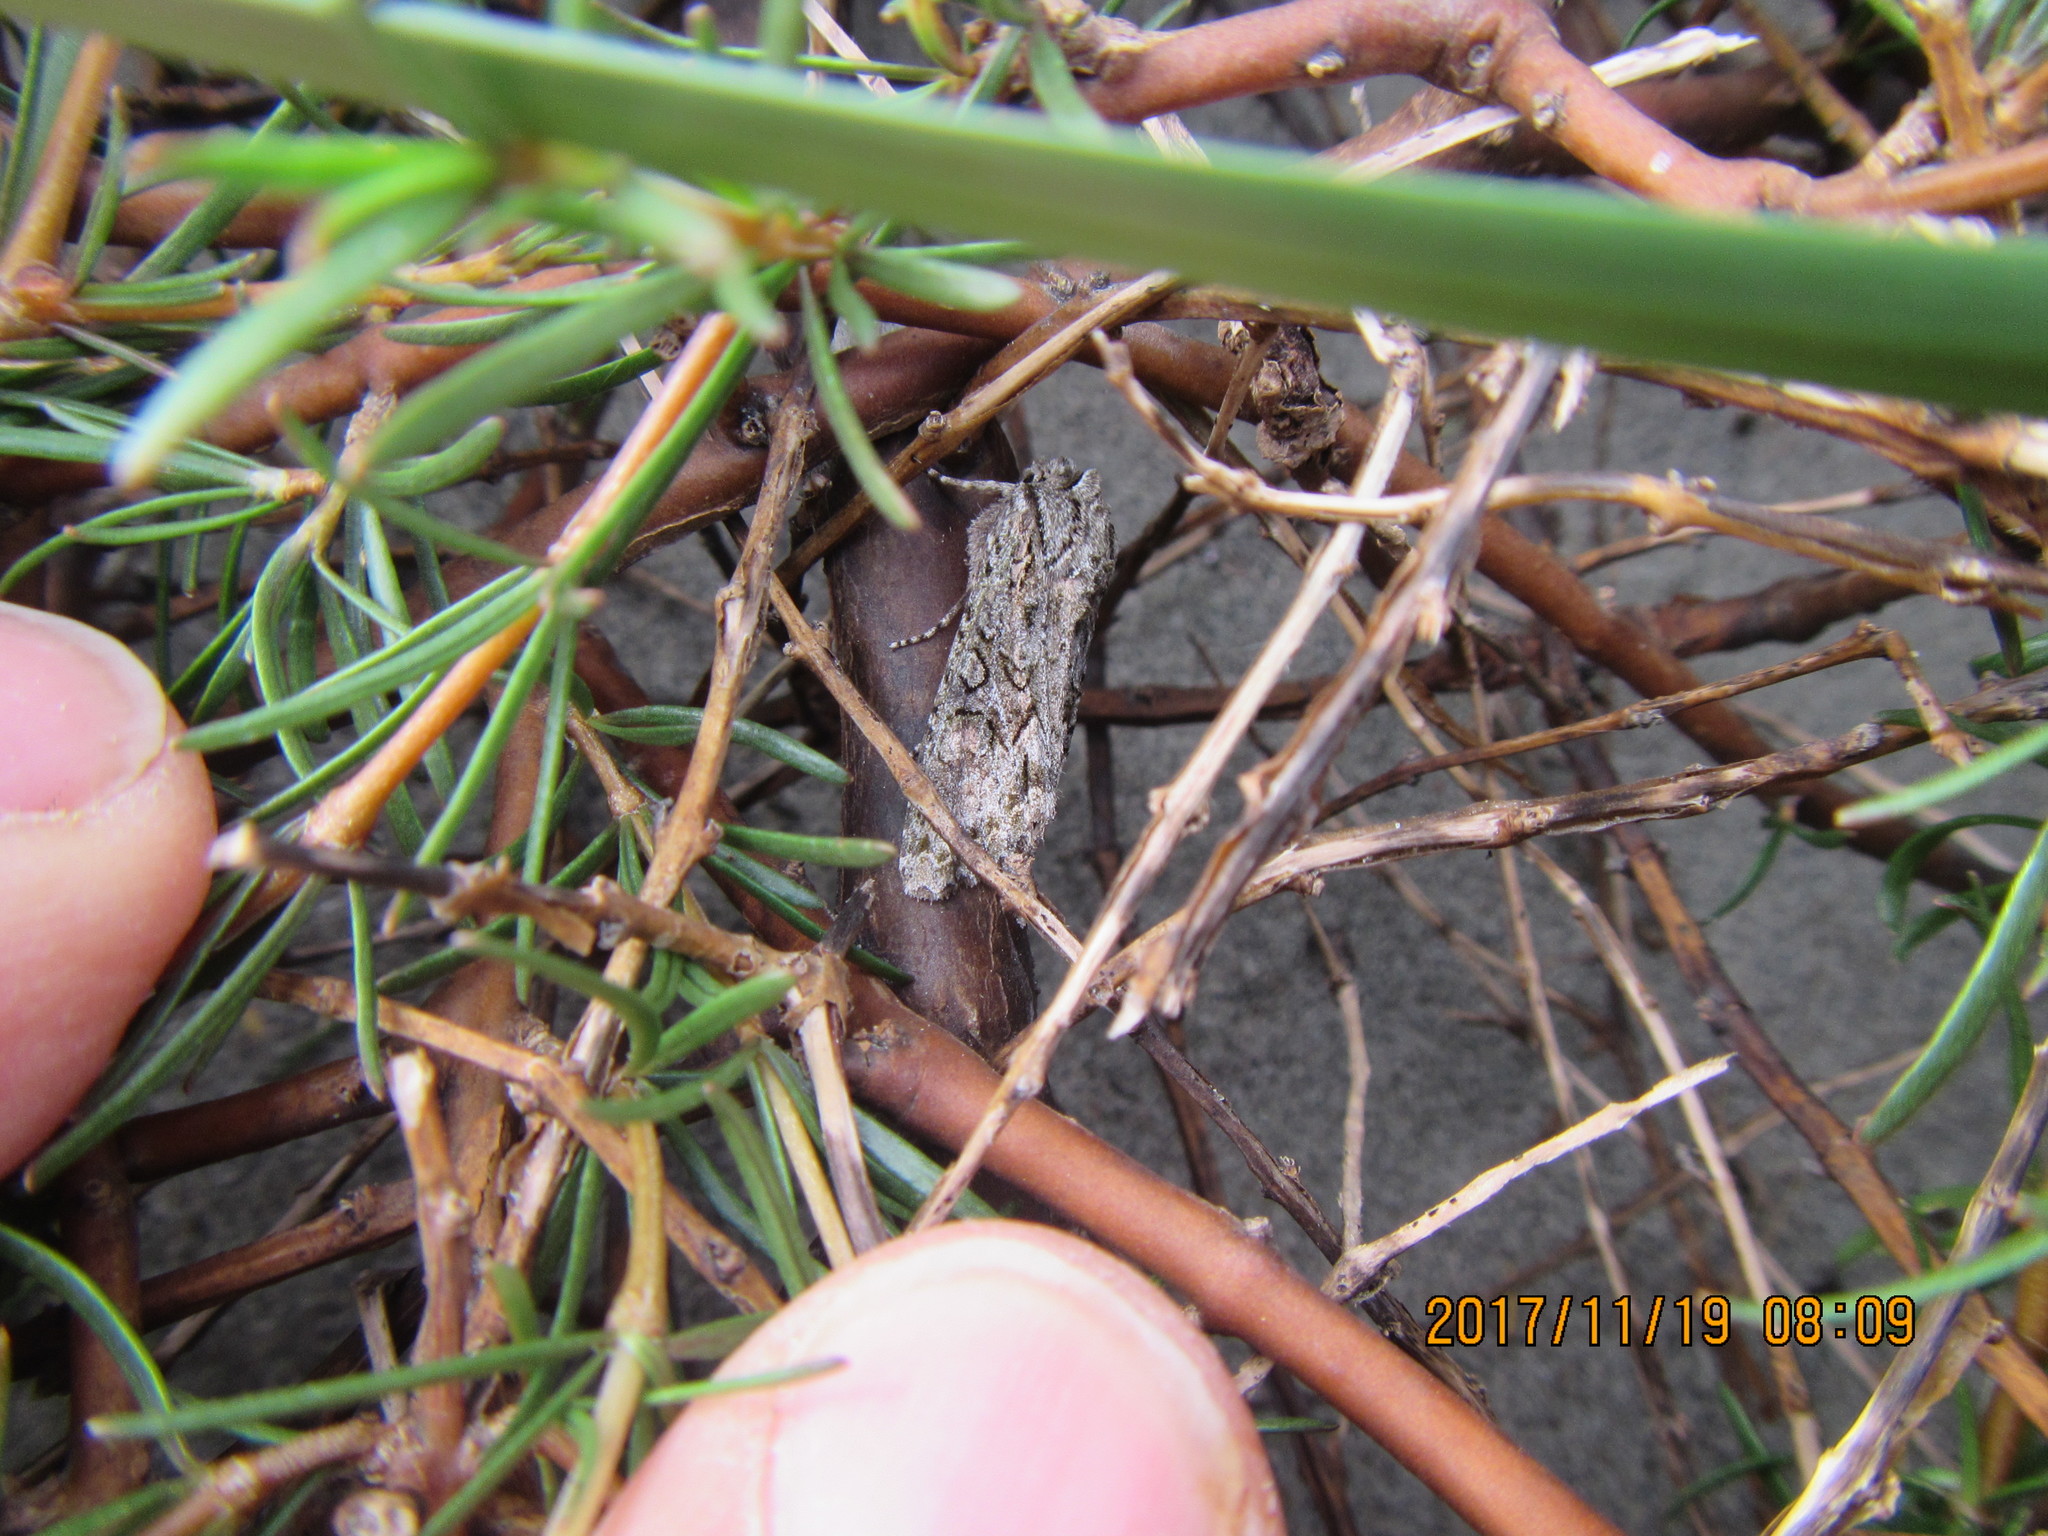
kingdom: Animalia
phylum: Arthropoda
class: Insecta
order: Lepidoptera
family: Noctuidae
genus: Ichneutica
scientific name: Ichneutica mutans
